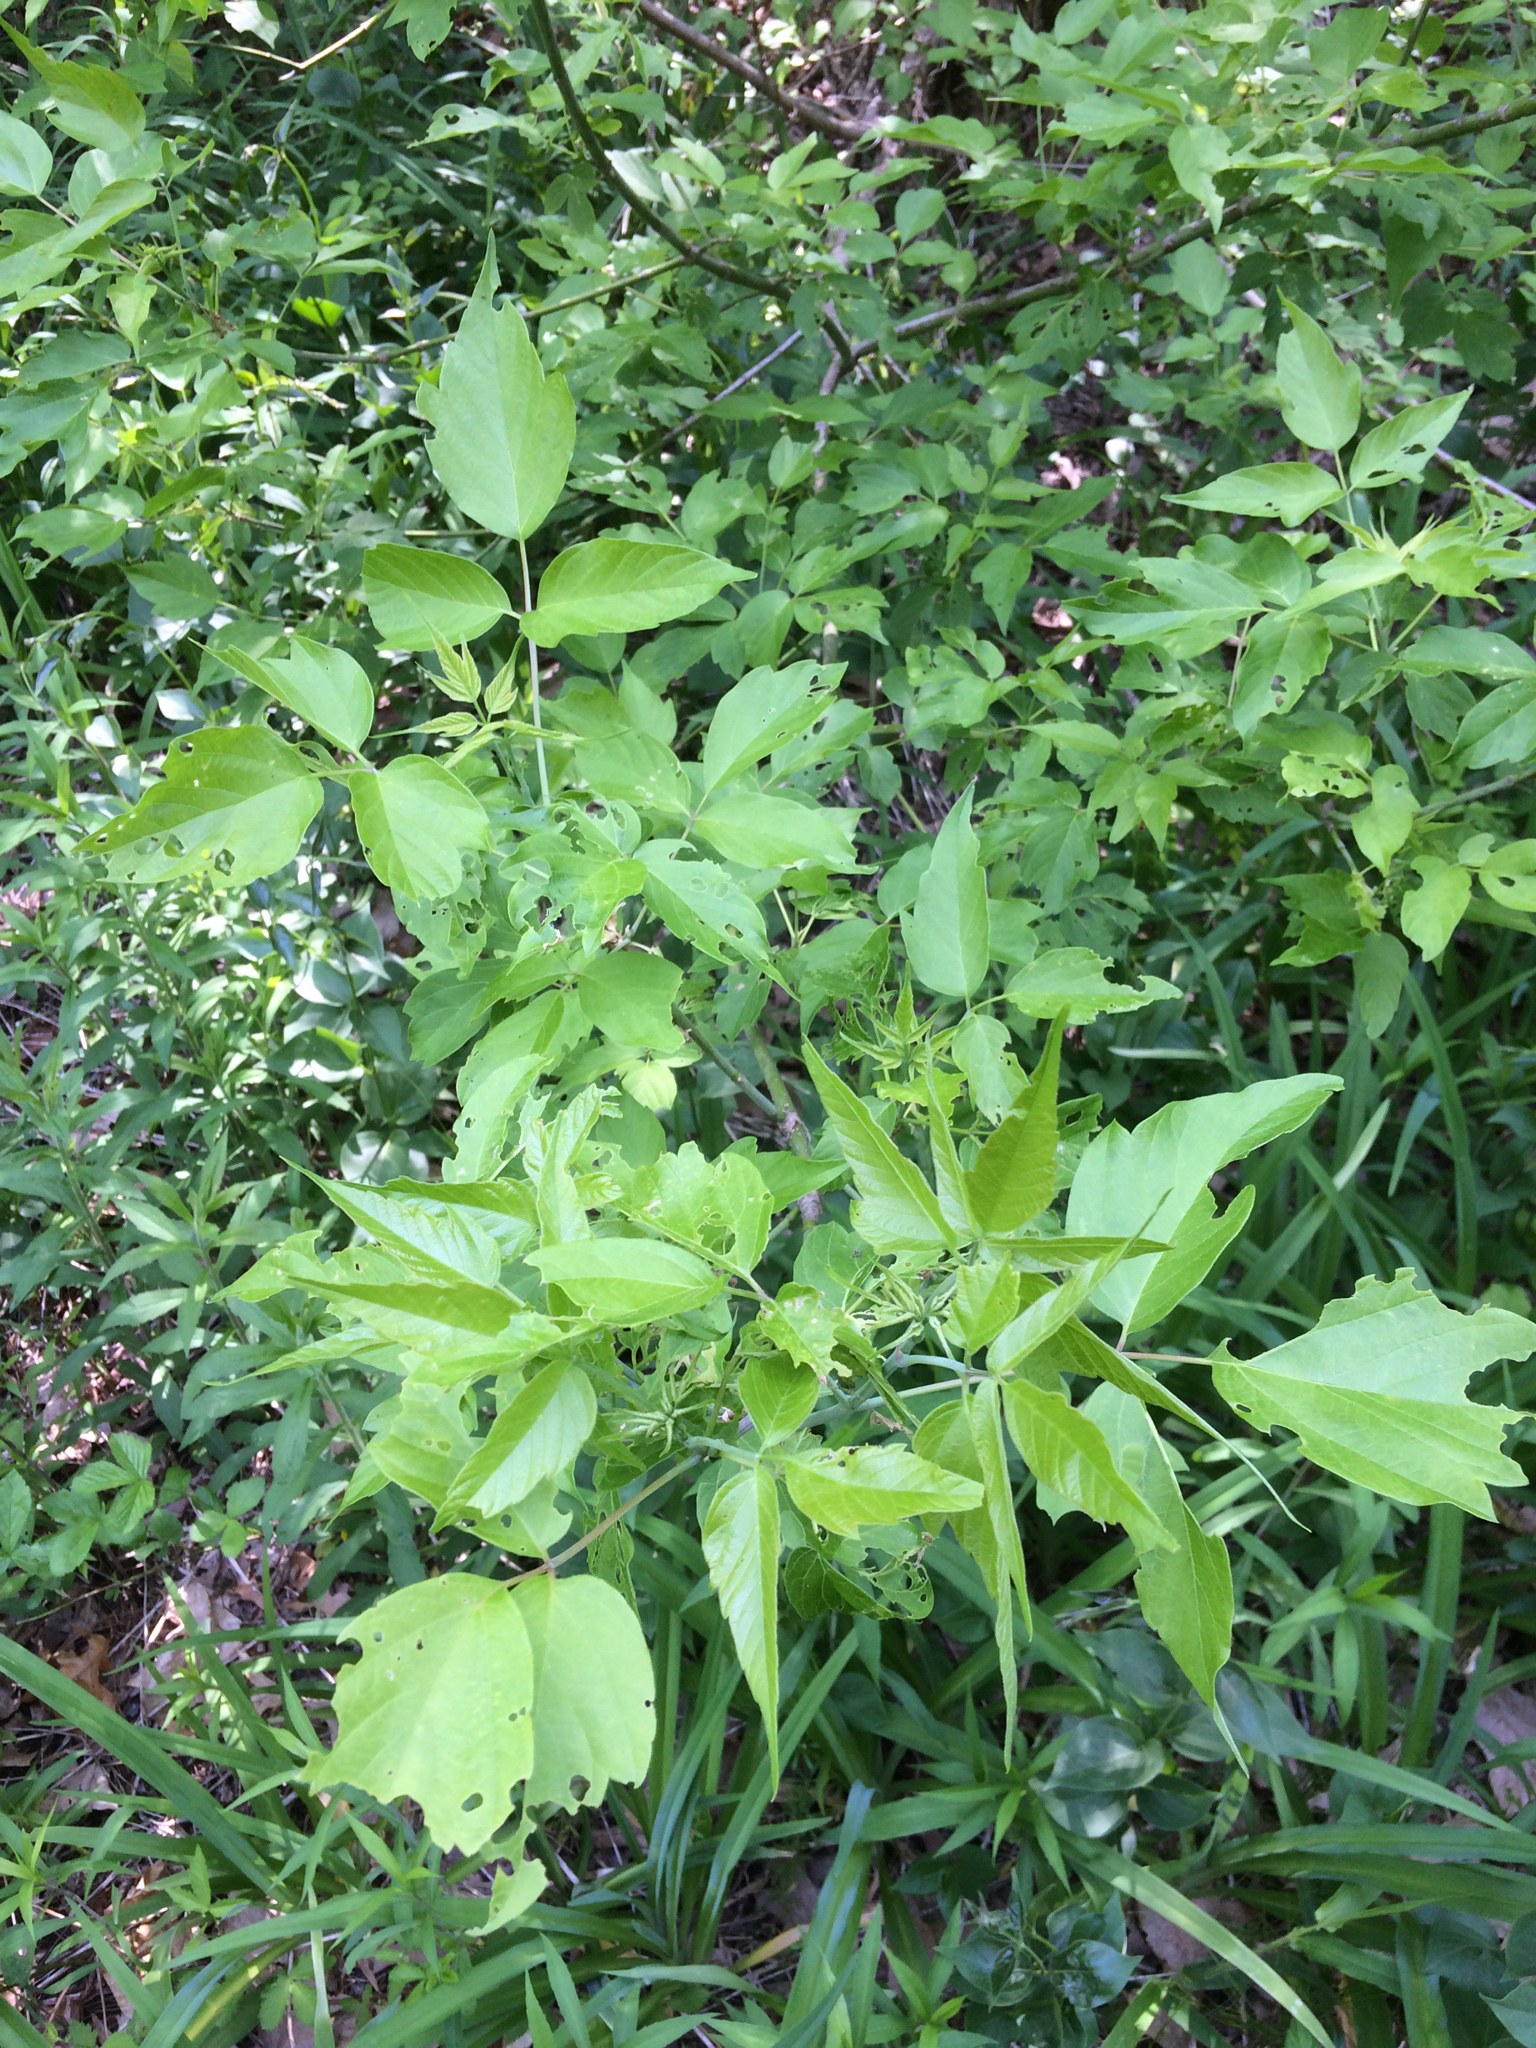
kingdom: Plantae
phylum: Tracheophyta
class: Magnoliopsida
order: Sapindales
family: Sapindaceae
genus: Acer
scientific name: Acer negundo
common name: Ashleaf maple
